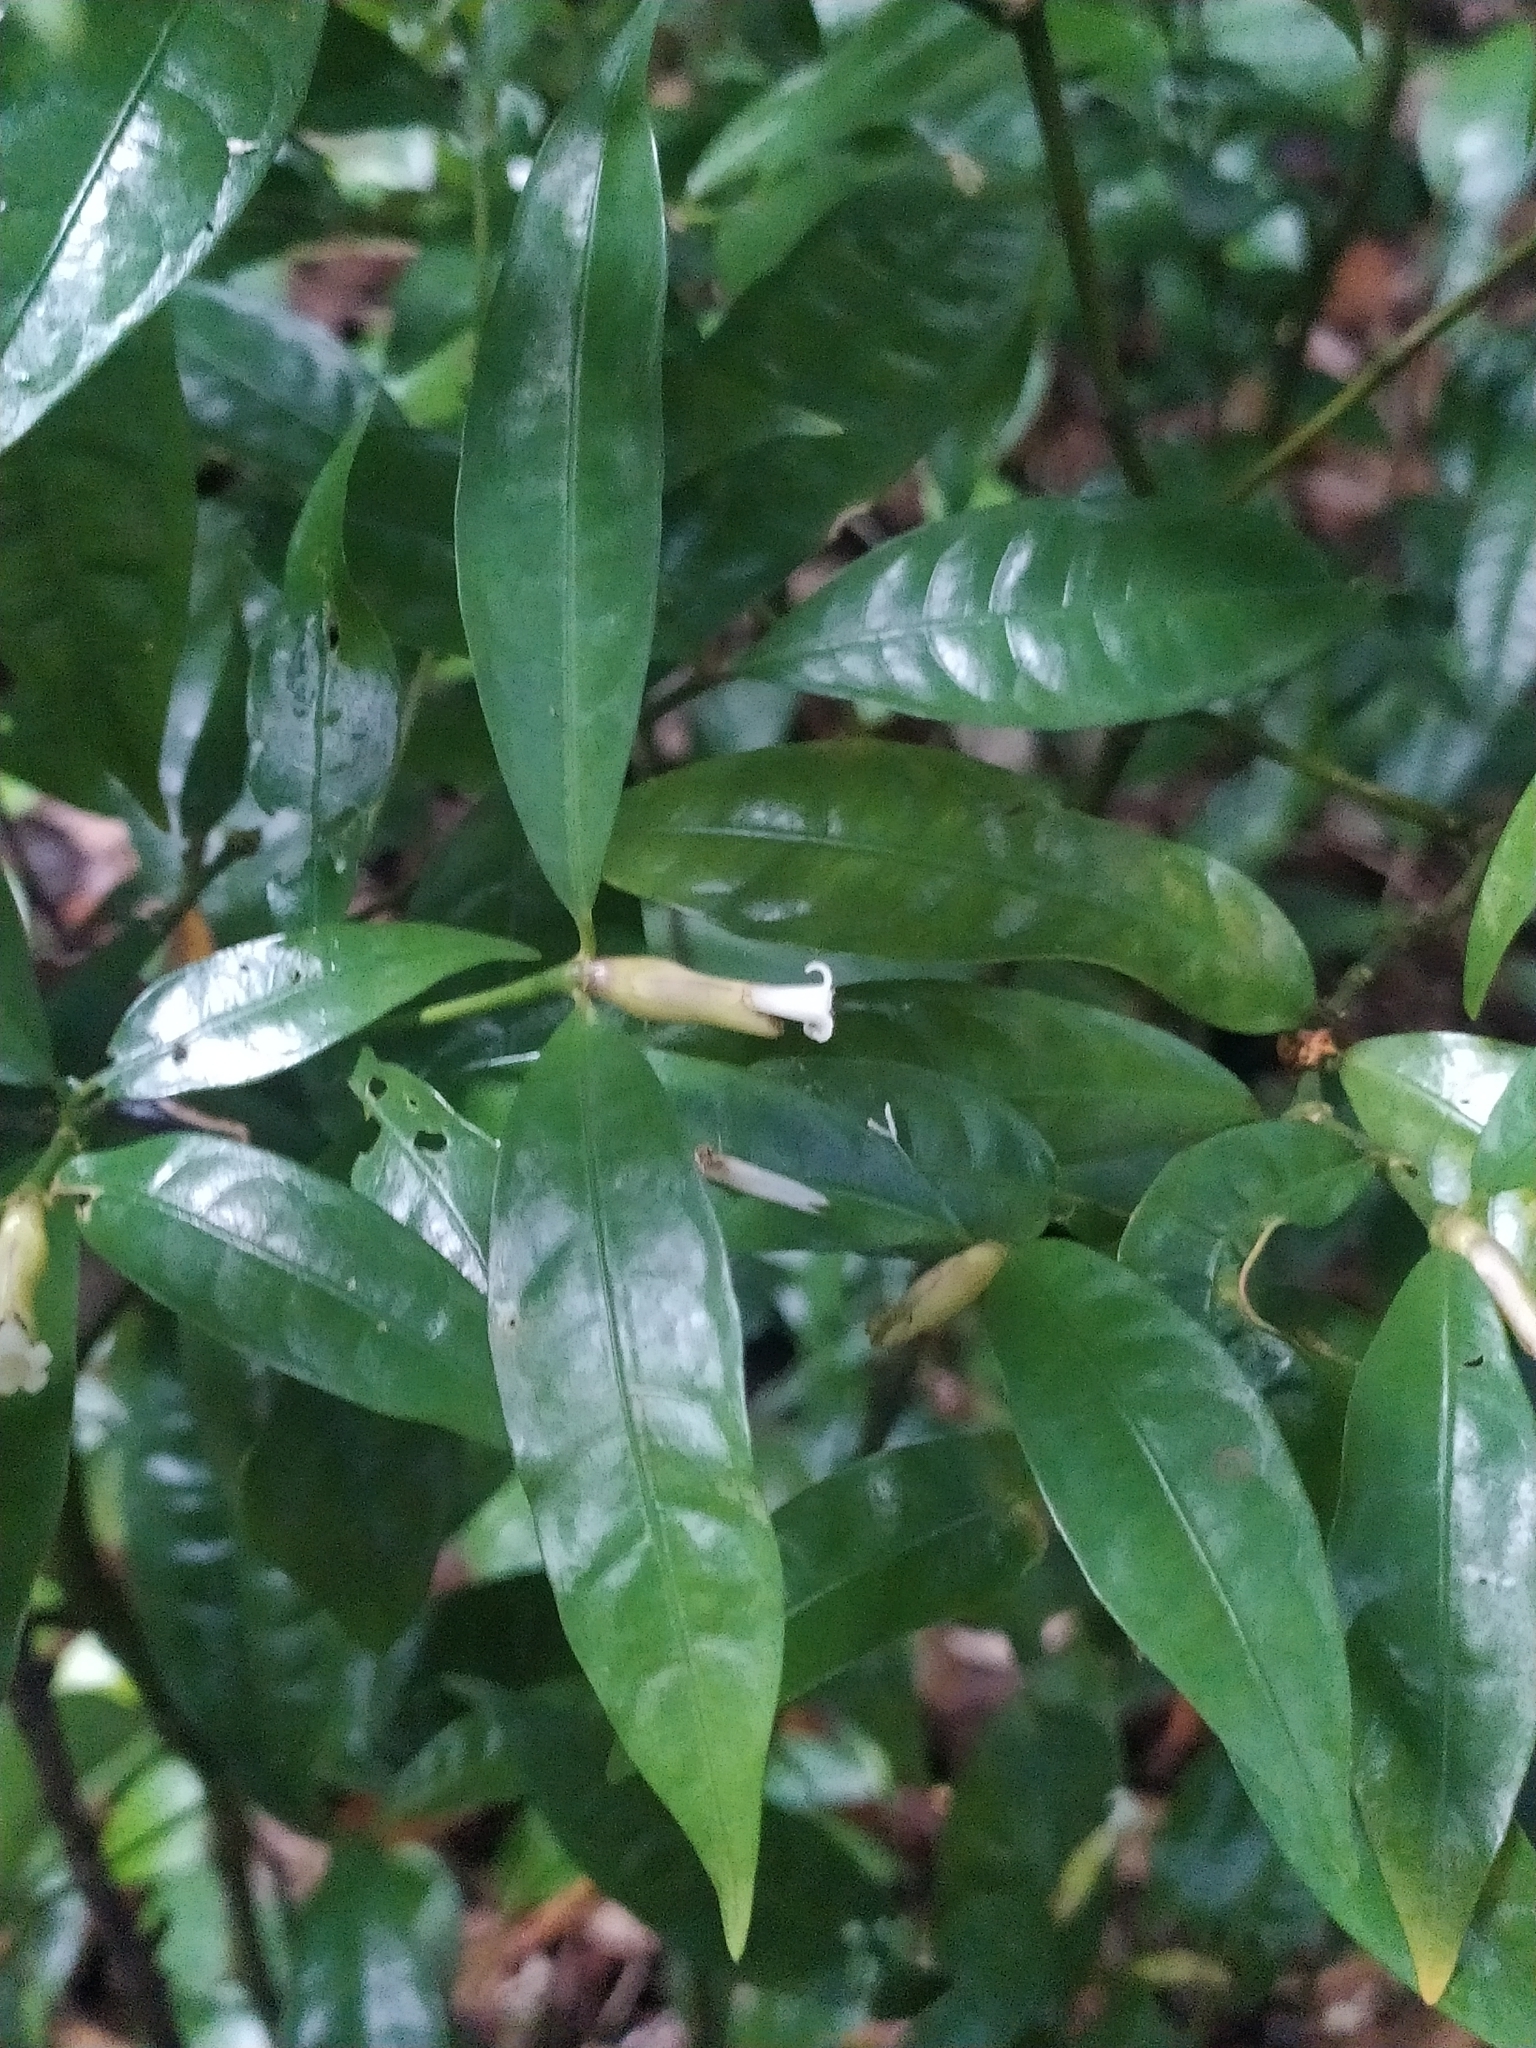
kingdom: Plantae
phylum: Tracheophyta
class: Magnoliopsida
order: Gentianales
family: Rubiaceae
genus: Palicourea
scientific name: Palicourea oblonga
